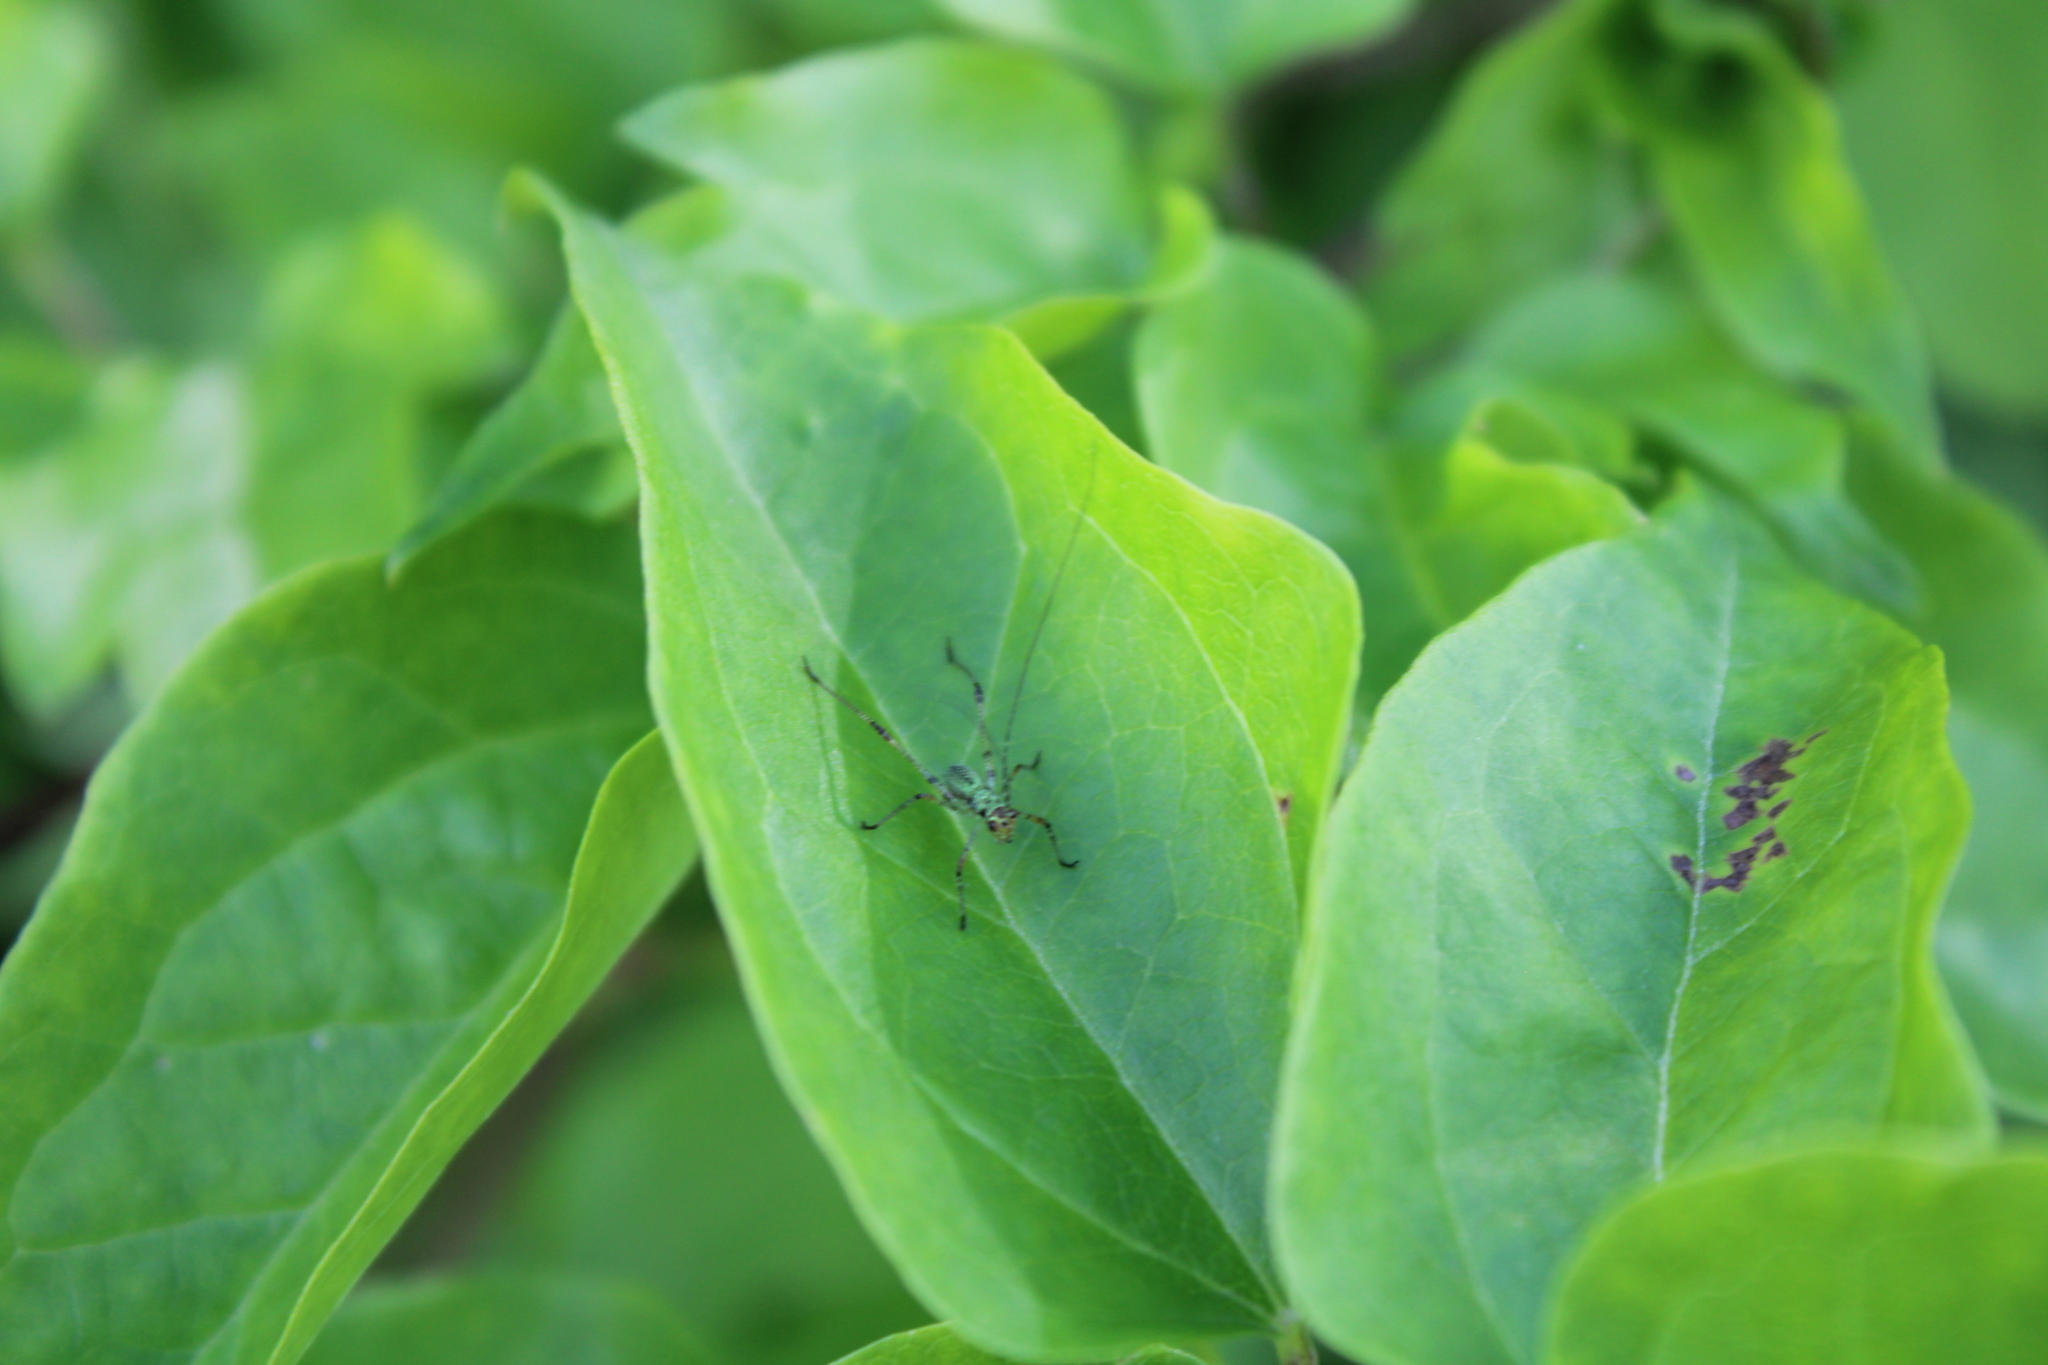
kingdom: Animalia
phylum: Arthropoda
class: Insecta
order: Orthoptera
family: Tettigoniidae
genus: Phaneroptera
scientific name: Phaneroptera nana
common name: Southern sickle bush-cricket
